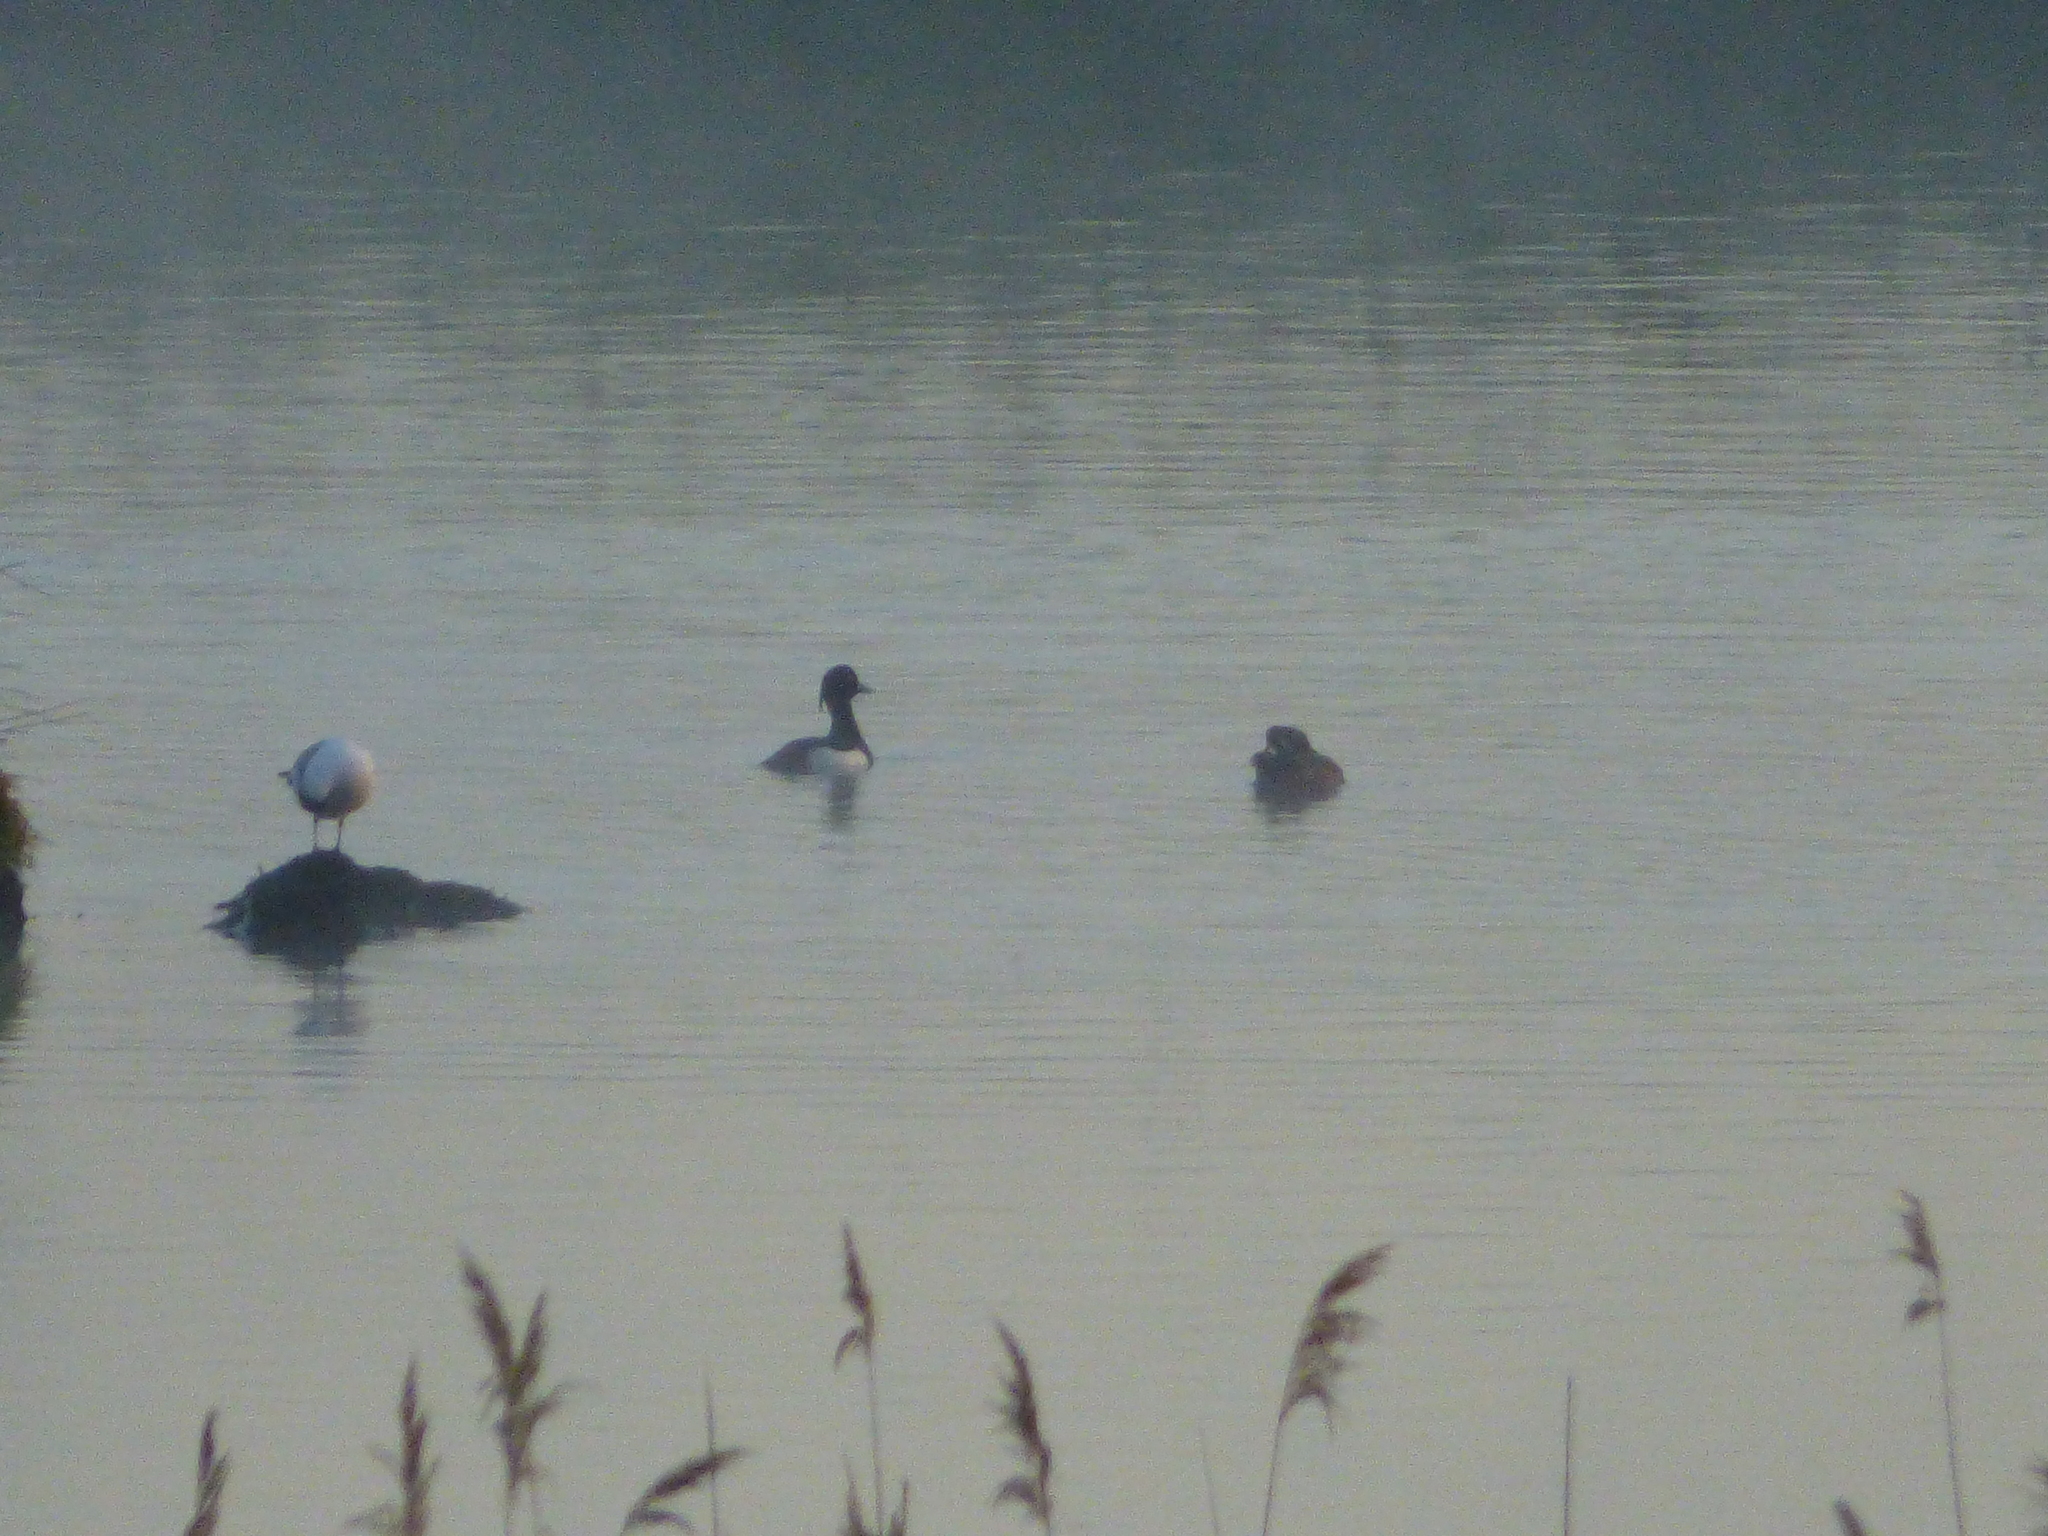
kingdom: Animalia
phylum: Chordata
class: Aves
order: Anseriformes
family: Anatidae
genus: Aythya
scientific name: Aythya fuligula
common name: Tufted duck
